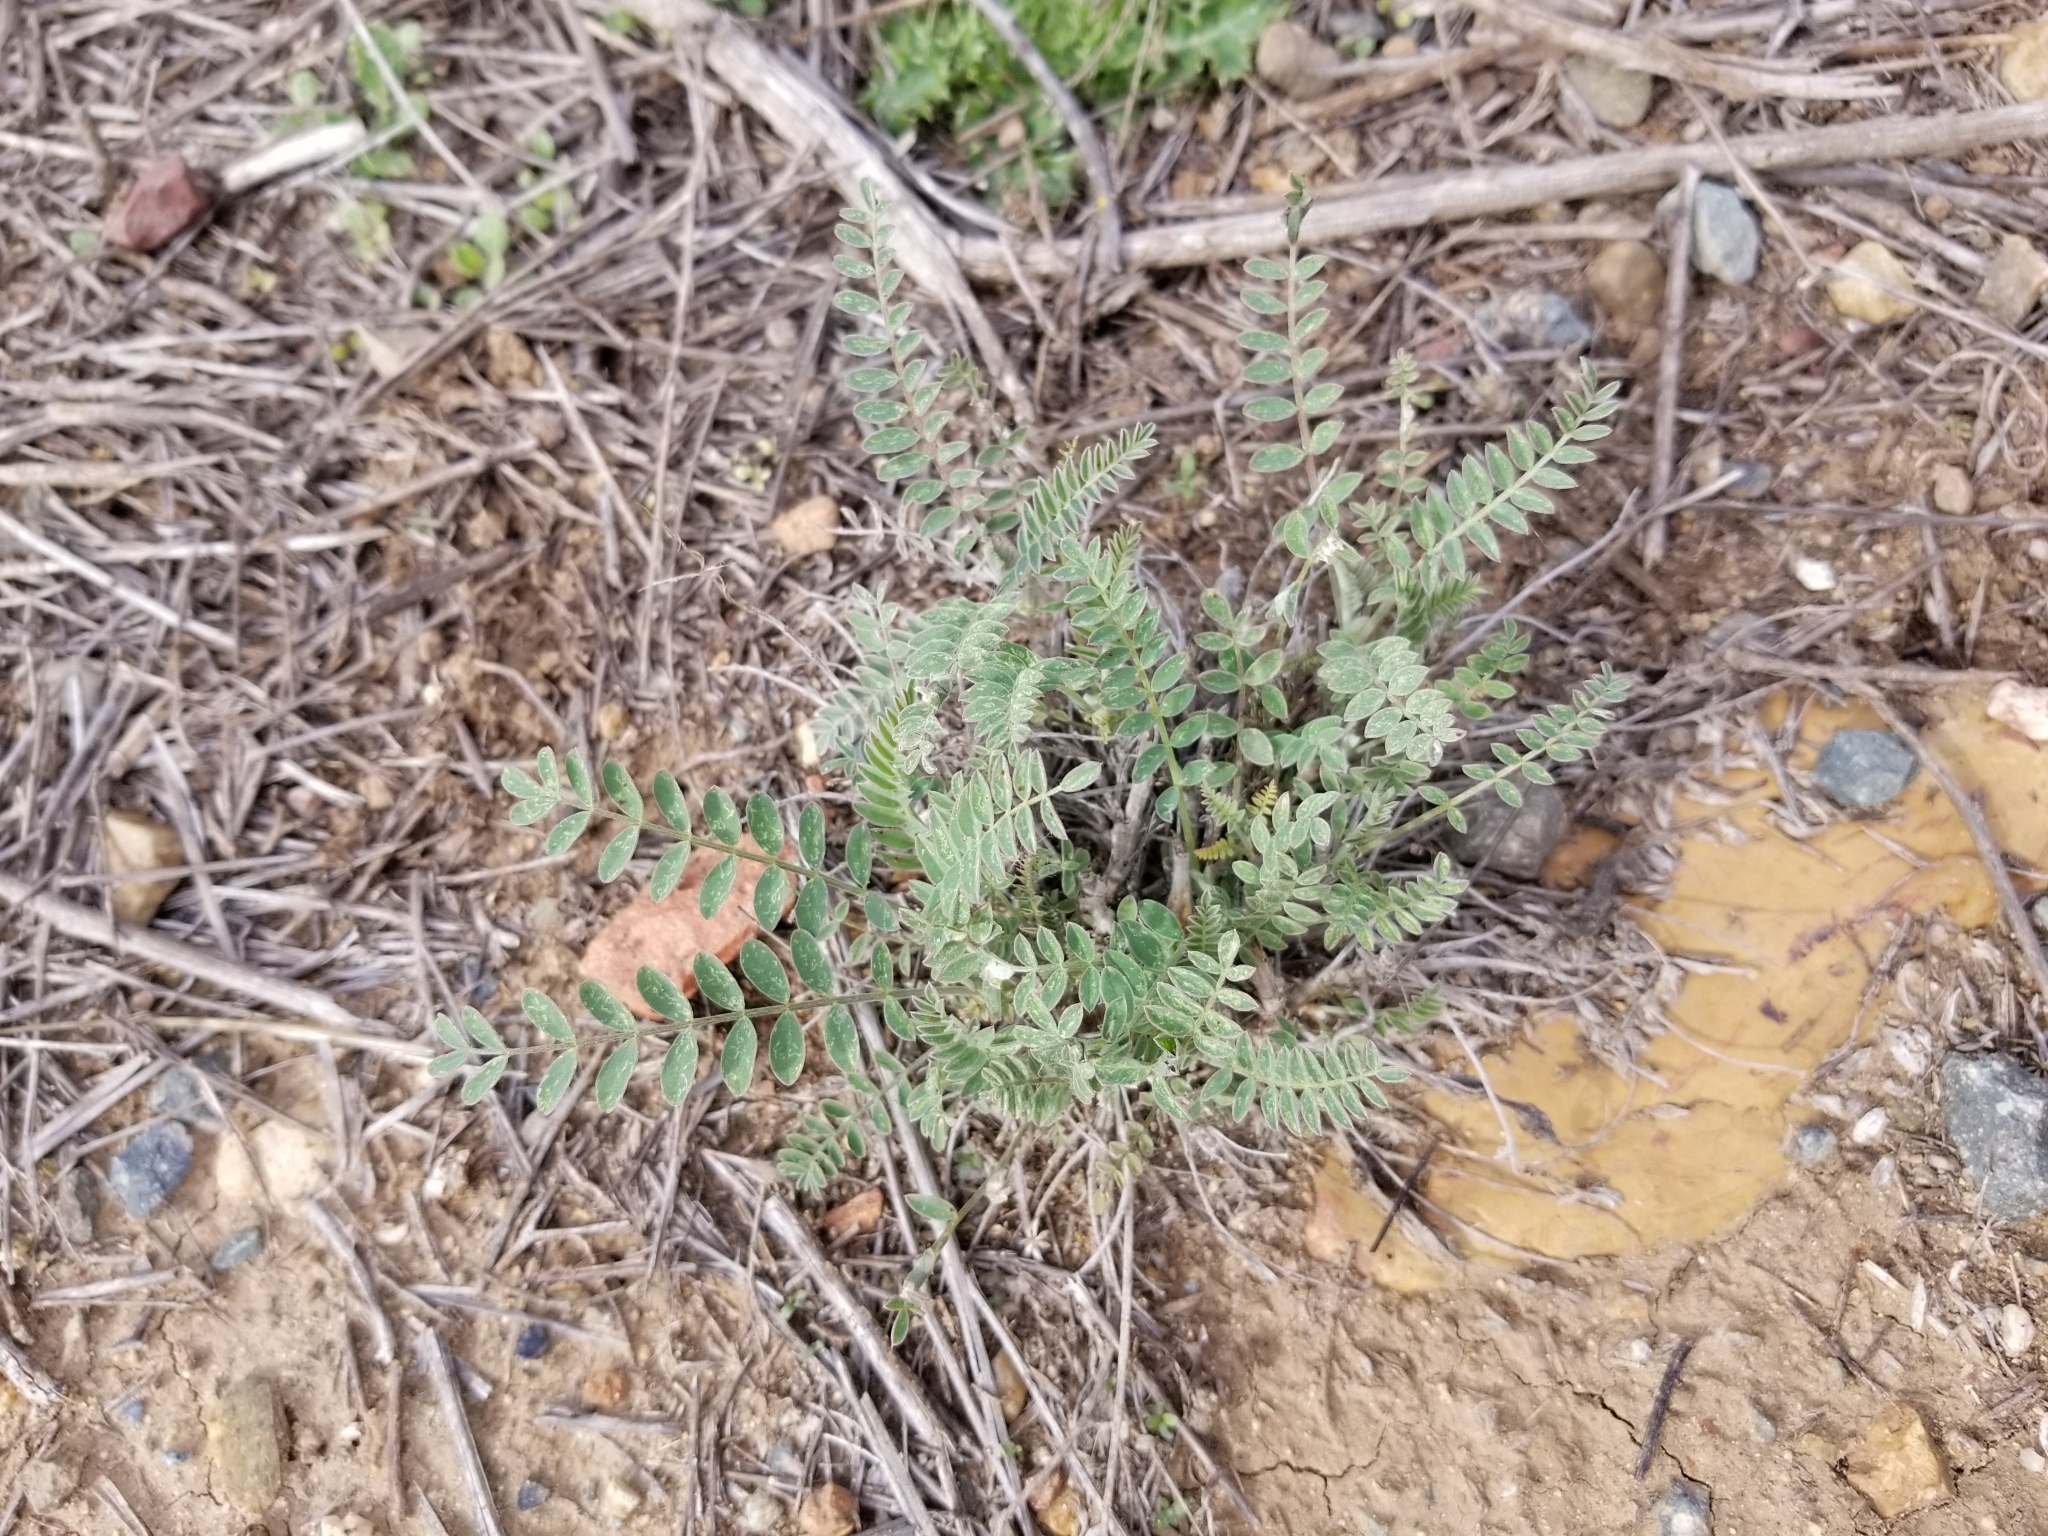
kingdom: Plantae
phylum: Tracheophyta
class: Magnoliopsida
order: Fabales
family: Fabaceae
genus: Astragalus
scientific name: Astragalus trichopodus
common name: Santa barbara milk-vetch
